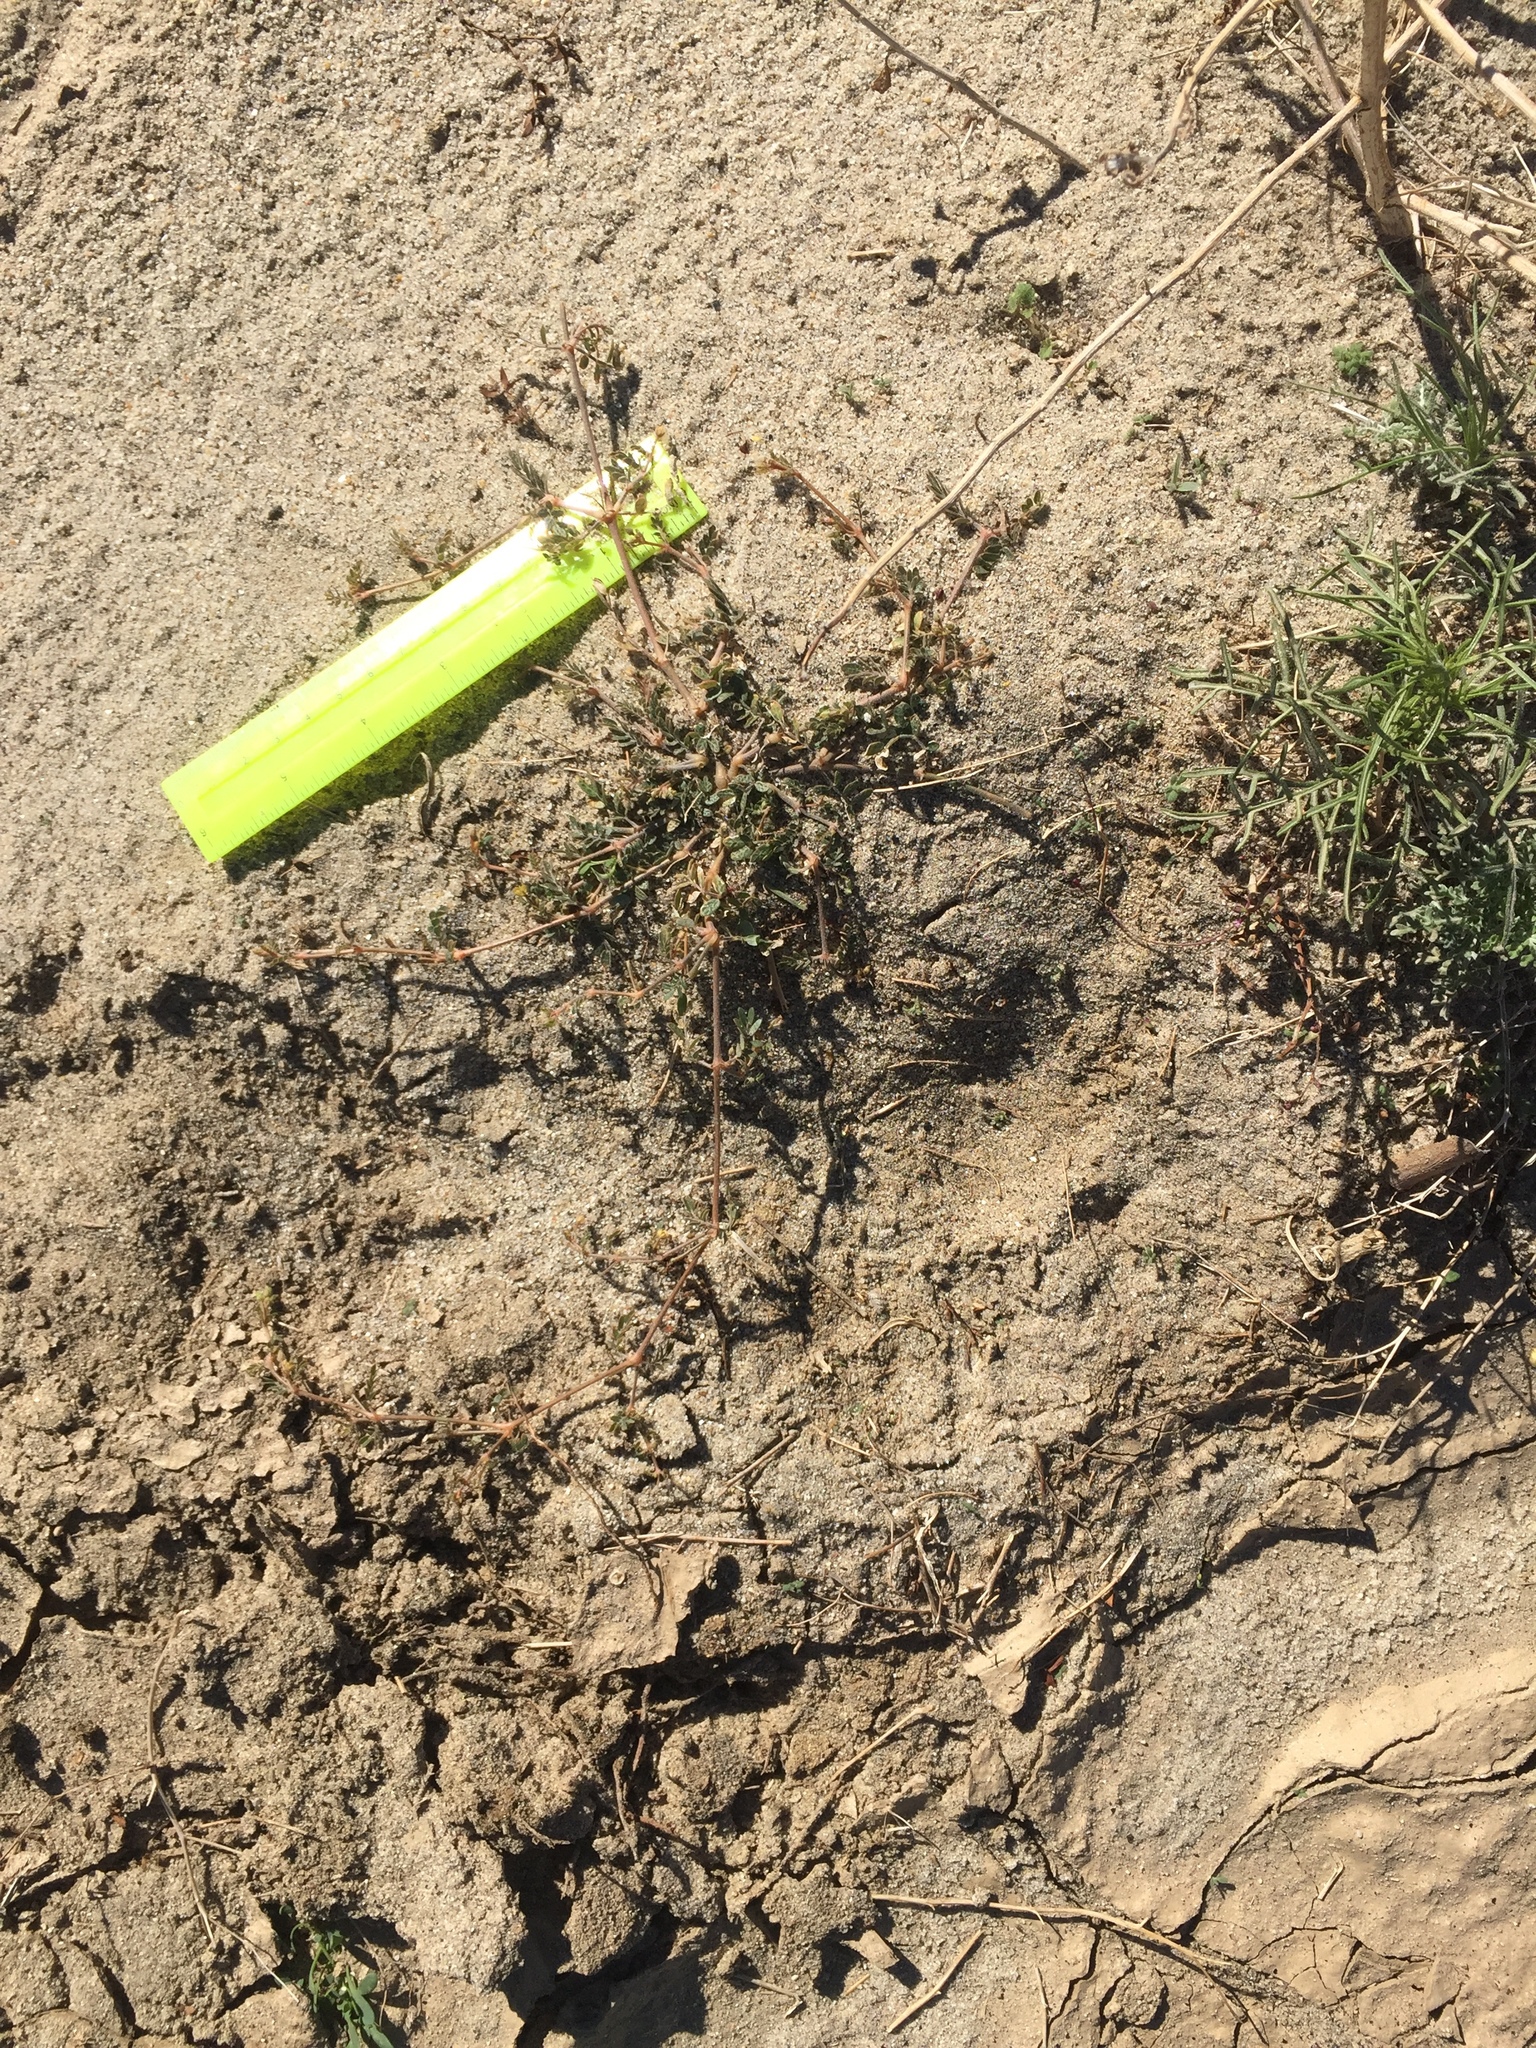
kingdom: Plantae
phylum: Tracheophyta
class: Magnoliopsida
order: Zygophyllales
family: Zygophyllaceae
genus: Kallstroemia
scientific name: Kallstroemia californica
